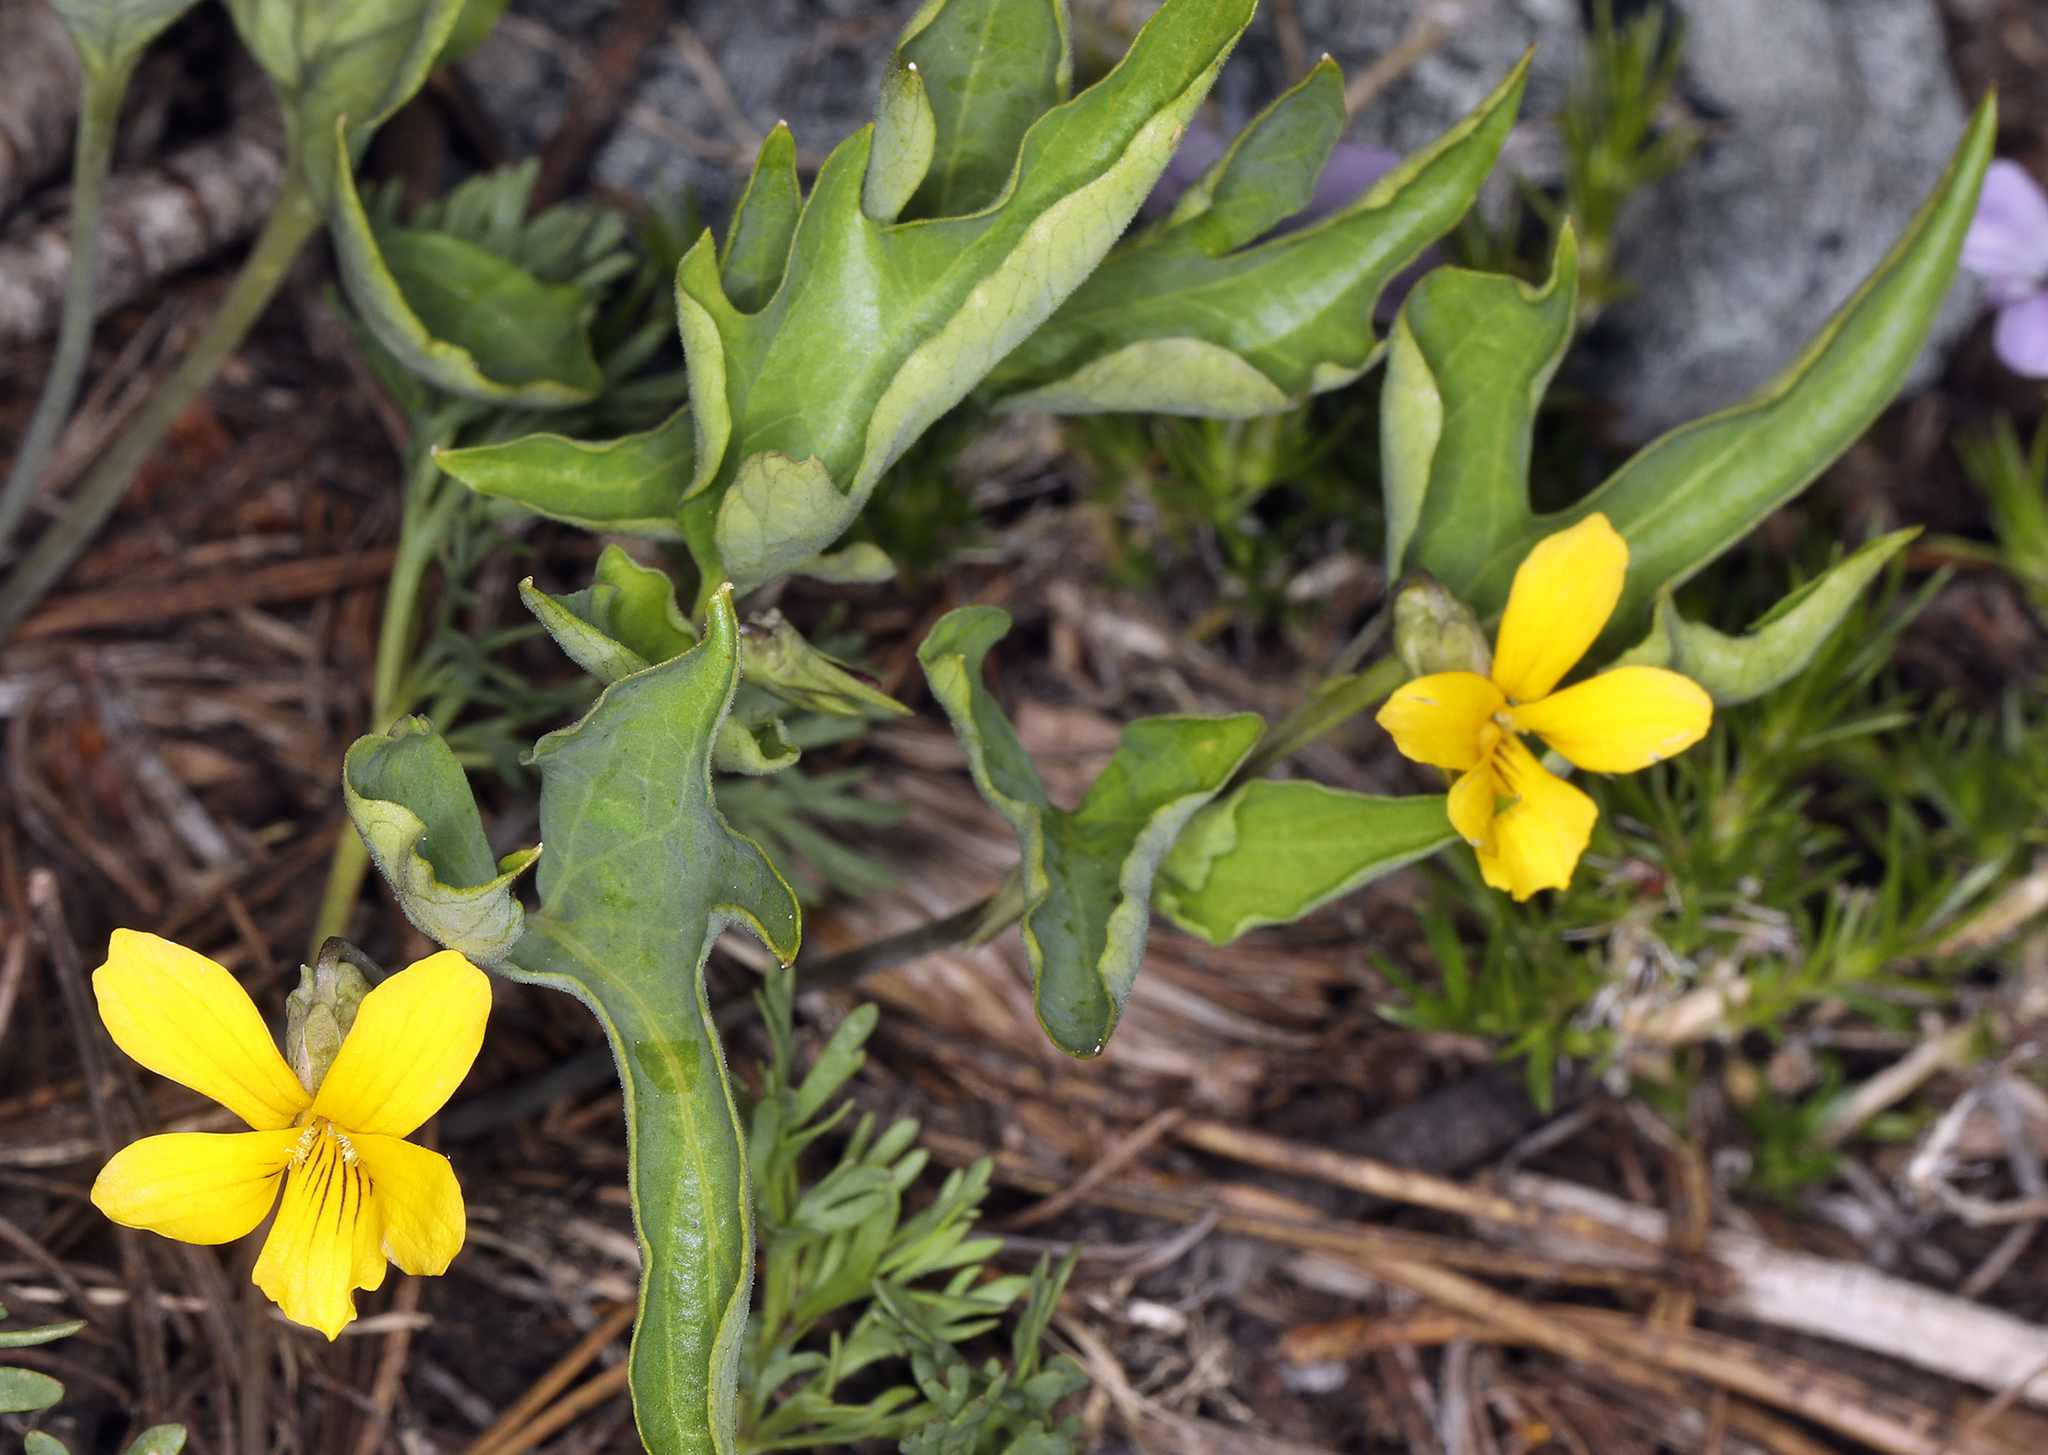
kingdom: Plantae
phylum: Tracheophyta
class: Magnoliopsida
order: Malpighiales
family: Violaceae
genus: Viola
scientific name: Viola lobata
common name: Pine violet
